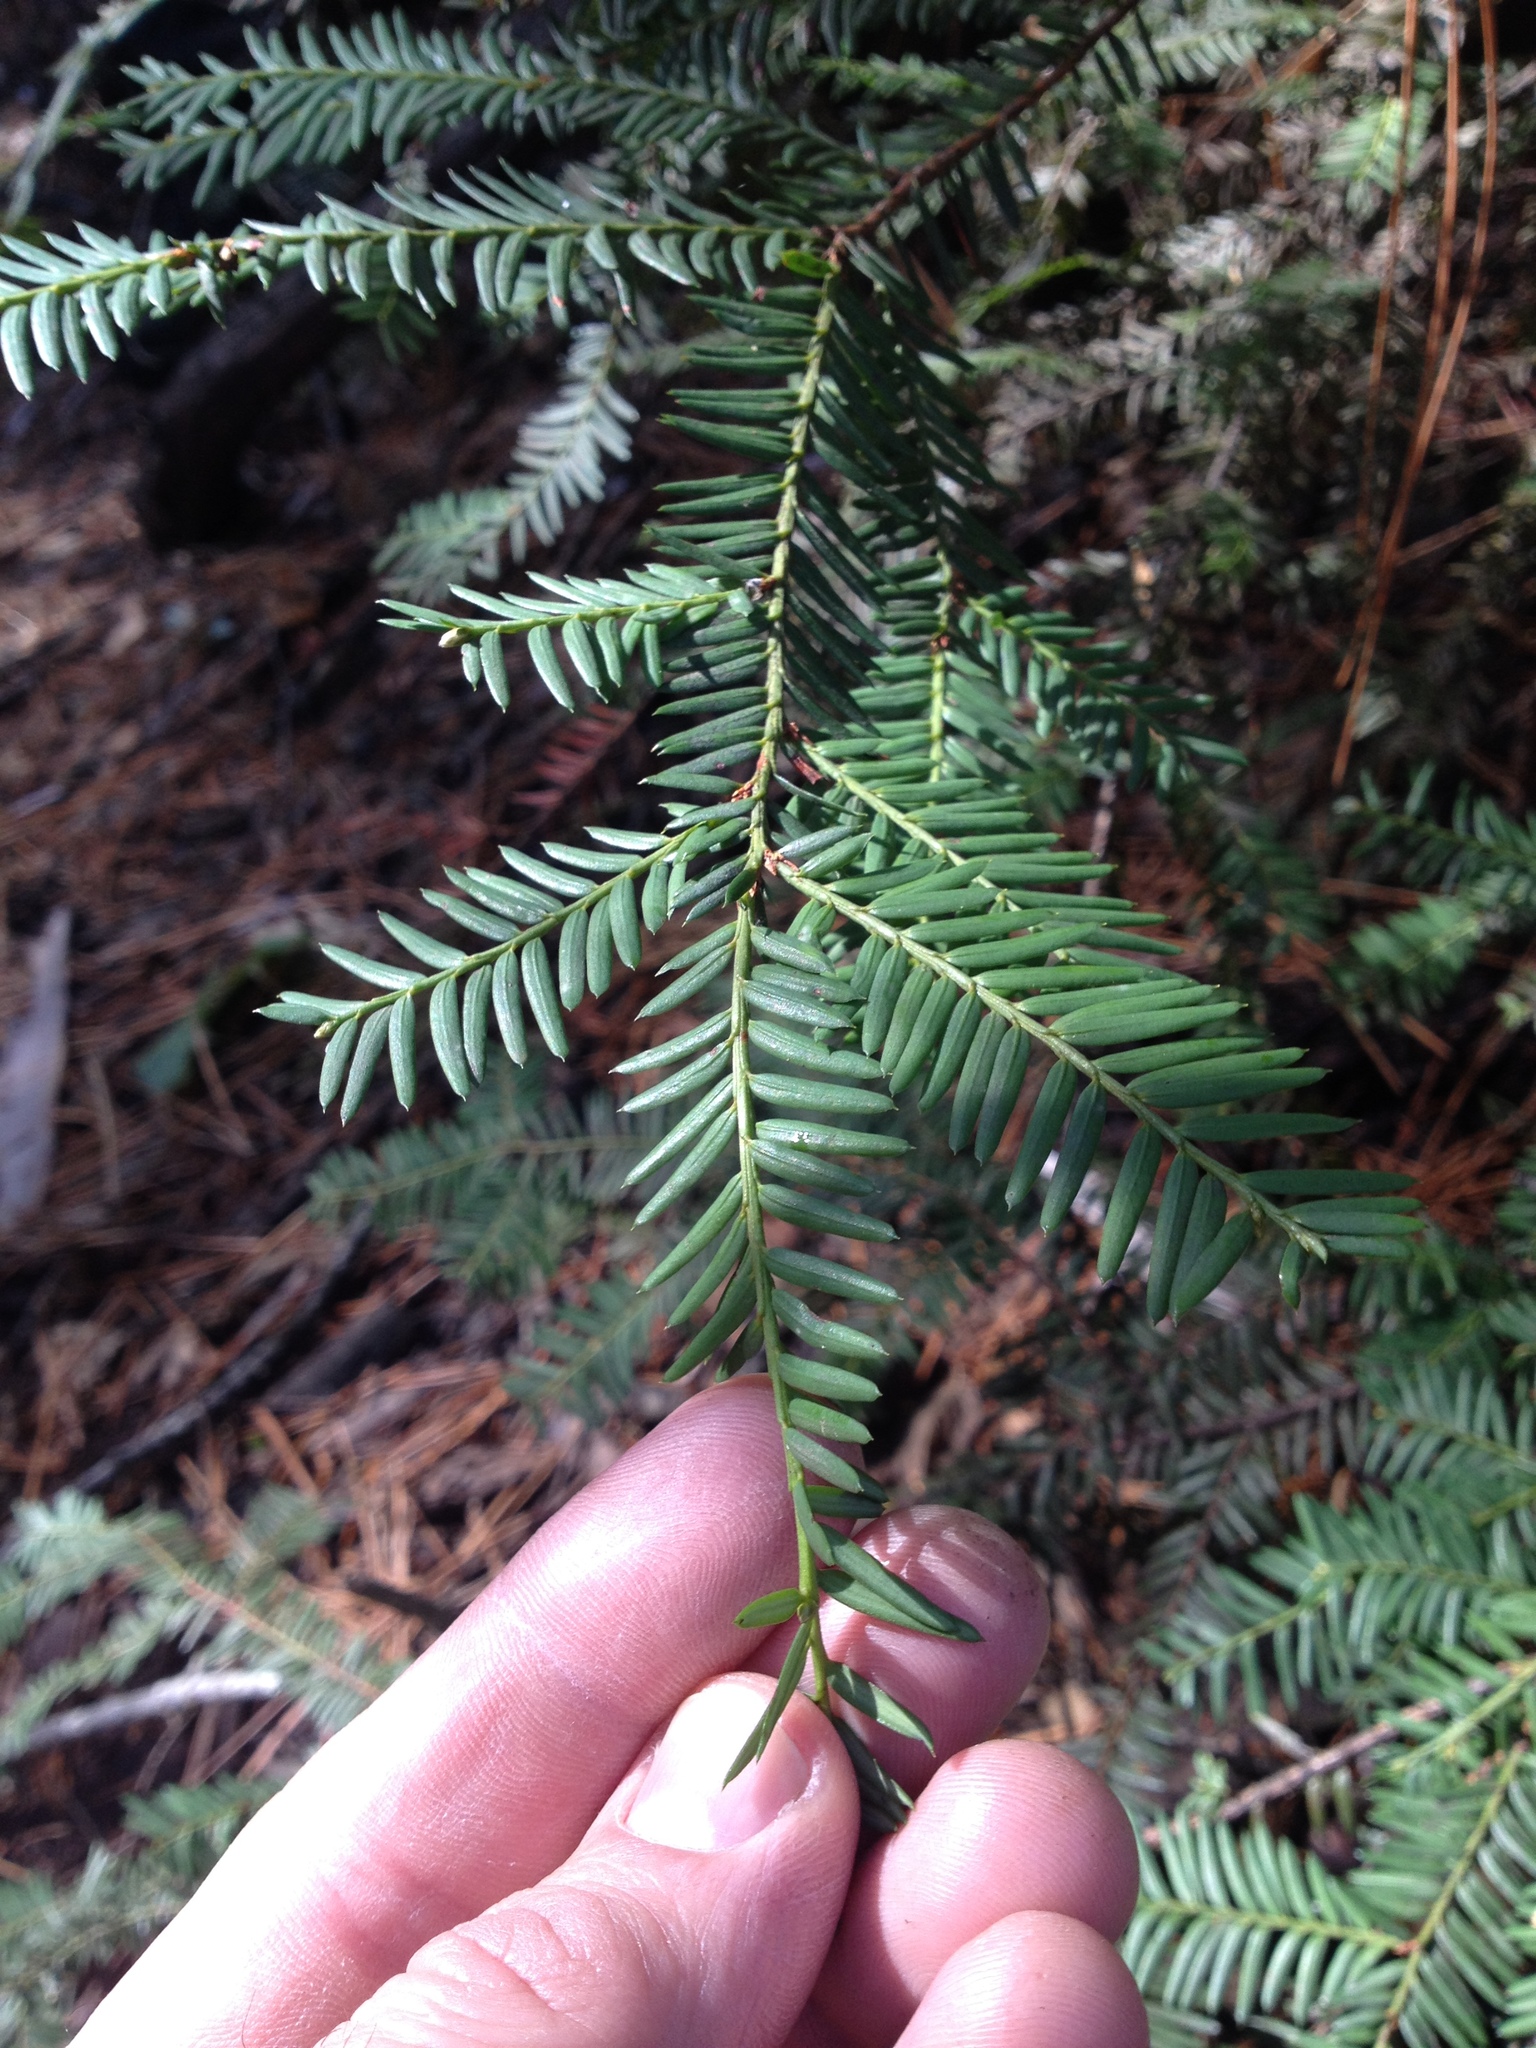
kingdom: Plantae
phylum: Tracheophyta
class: Pinopsida
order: Pinales
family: Taxaceae
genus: Taxus
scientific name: Taxus brevifolia
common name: Pacific yew
